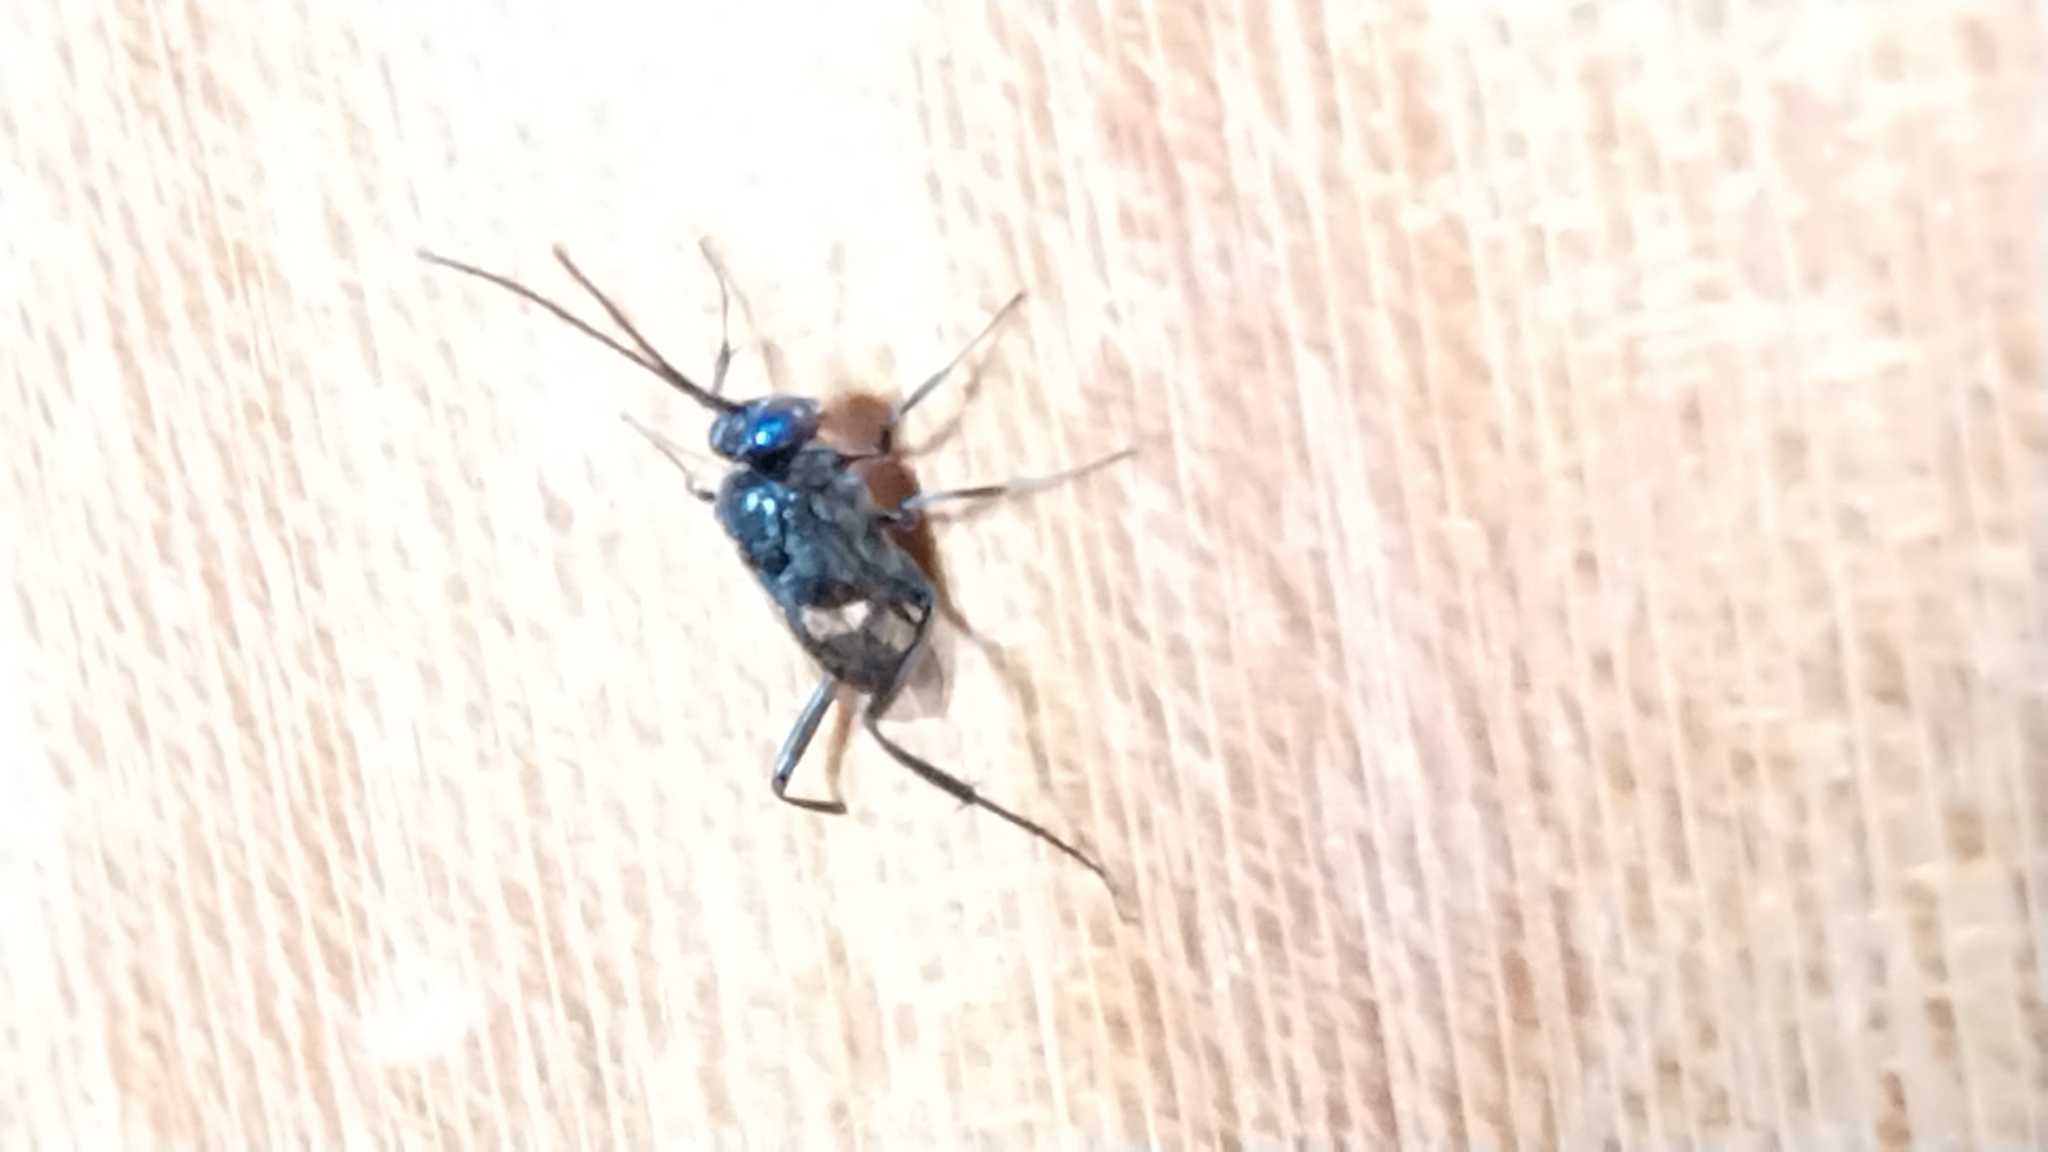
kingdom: Animalia
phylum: Arthropoda
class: Insecta
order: Hymenoptera
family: Evaniidae
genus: Evania
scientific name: Evania appendigaster
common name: Ensign wasp
